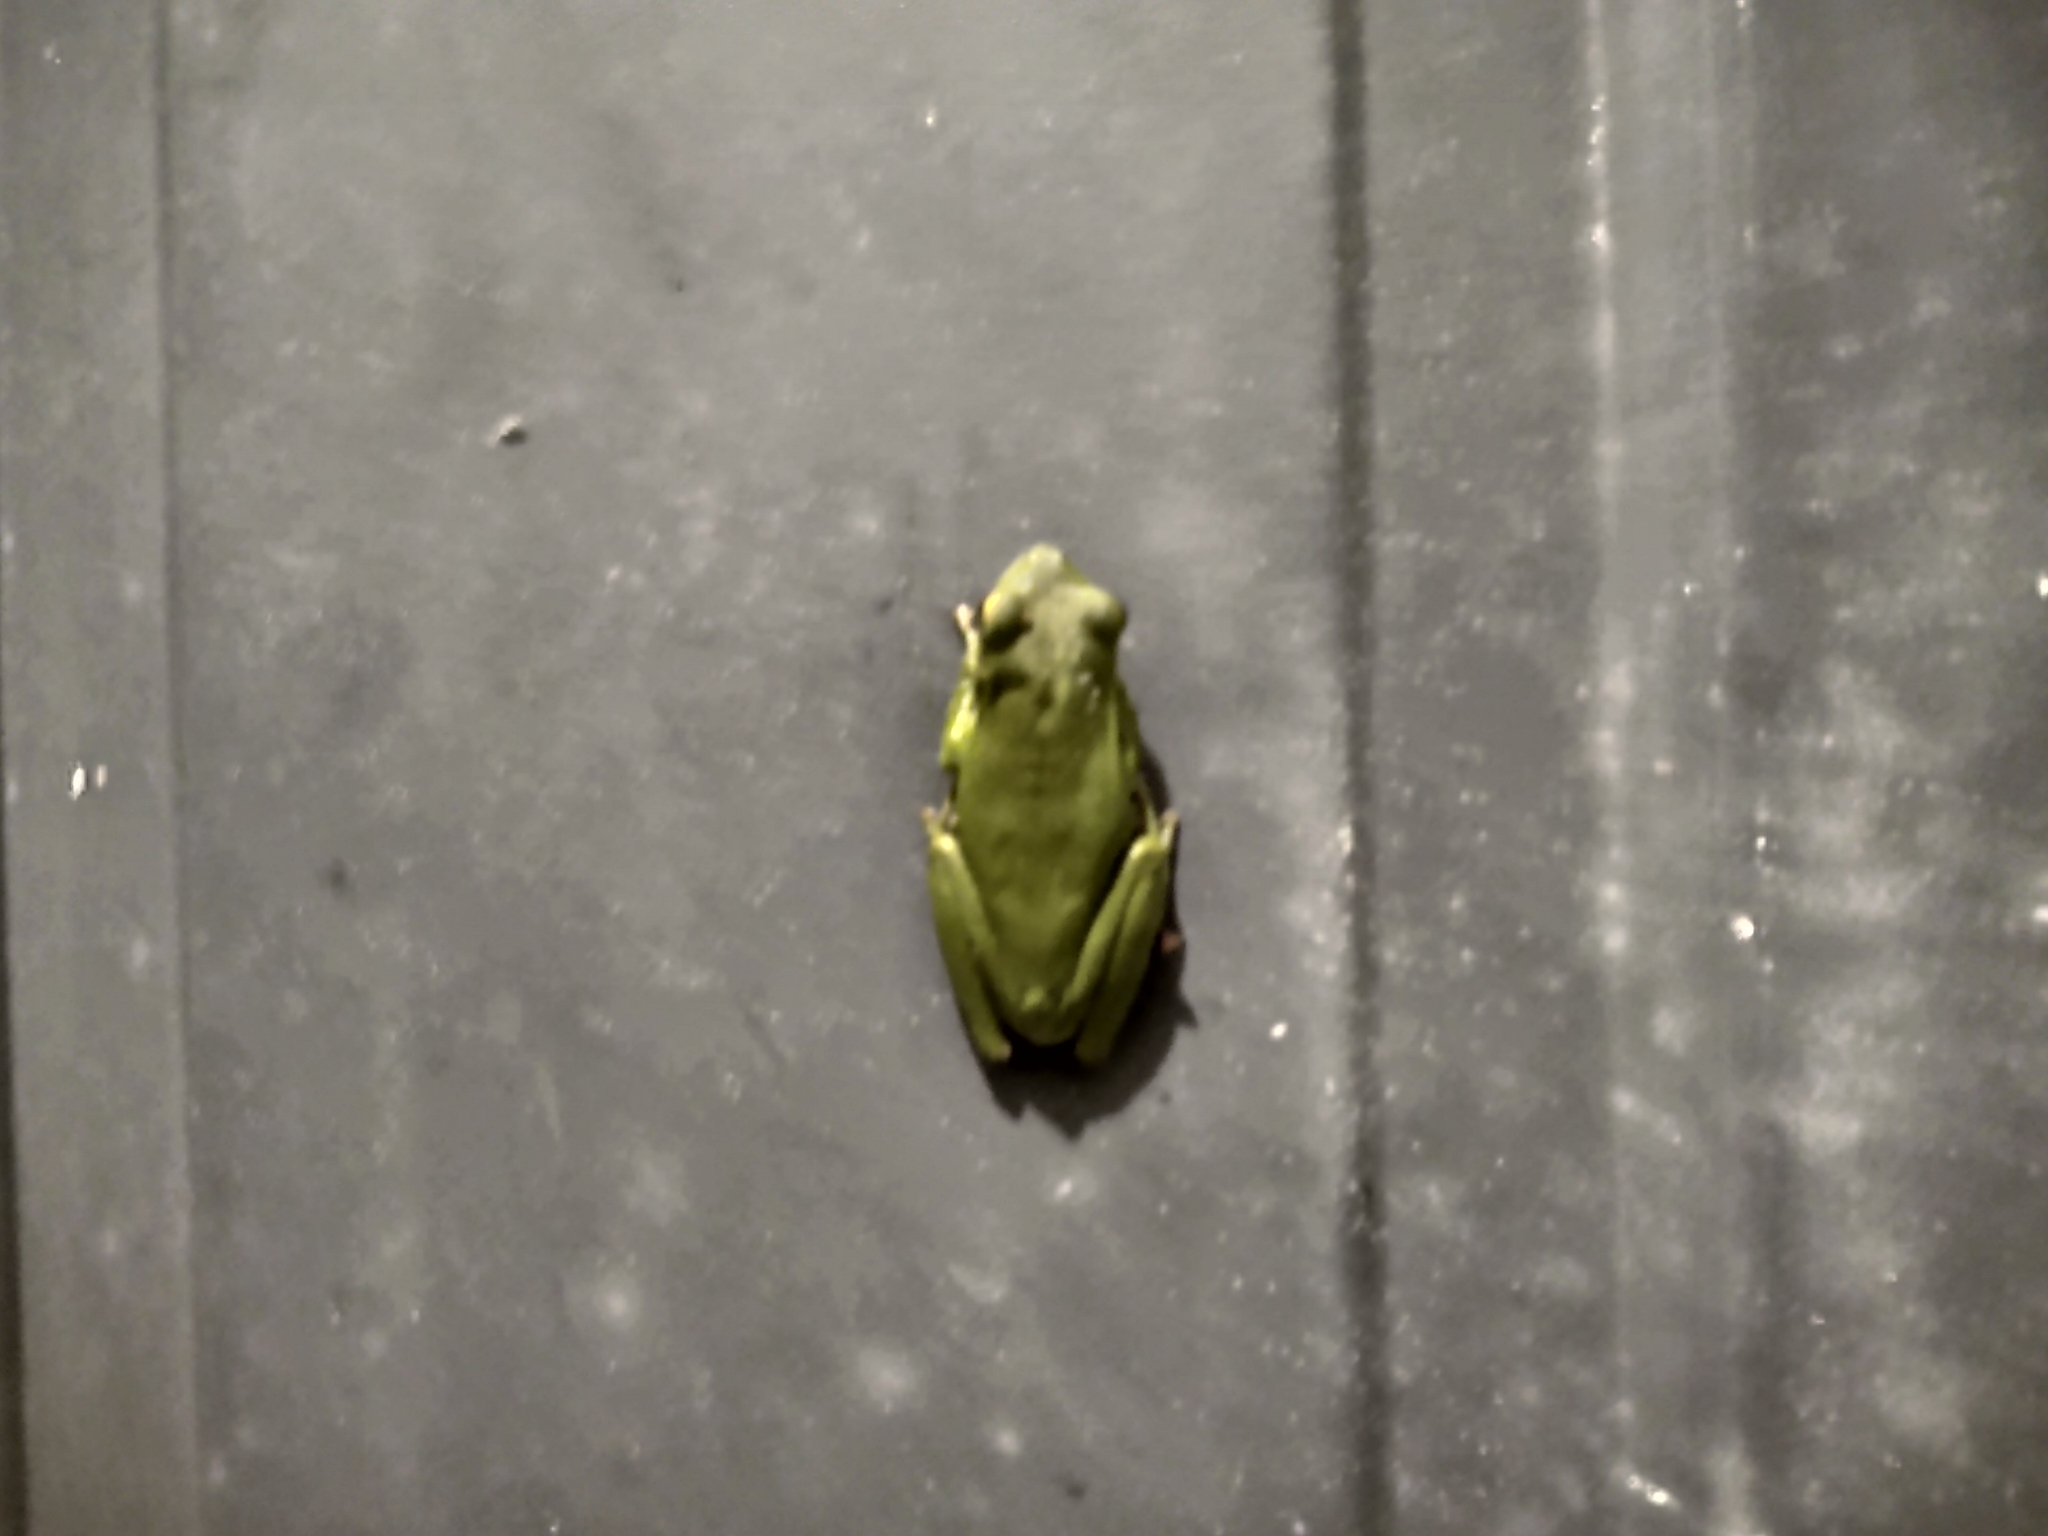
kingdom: Animalia
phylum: Chordata
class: Amphibia
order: Anura
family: Hylidae
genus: Dryophytes
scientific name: Dryophytes cinereus
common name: Green treefrog
